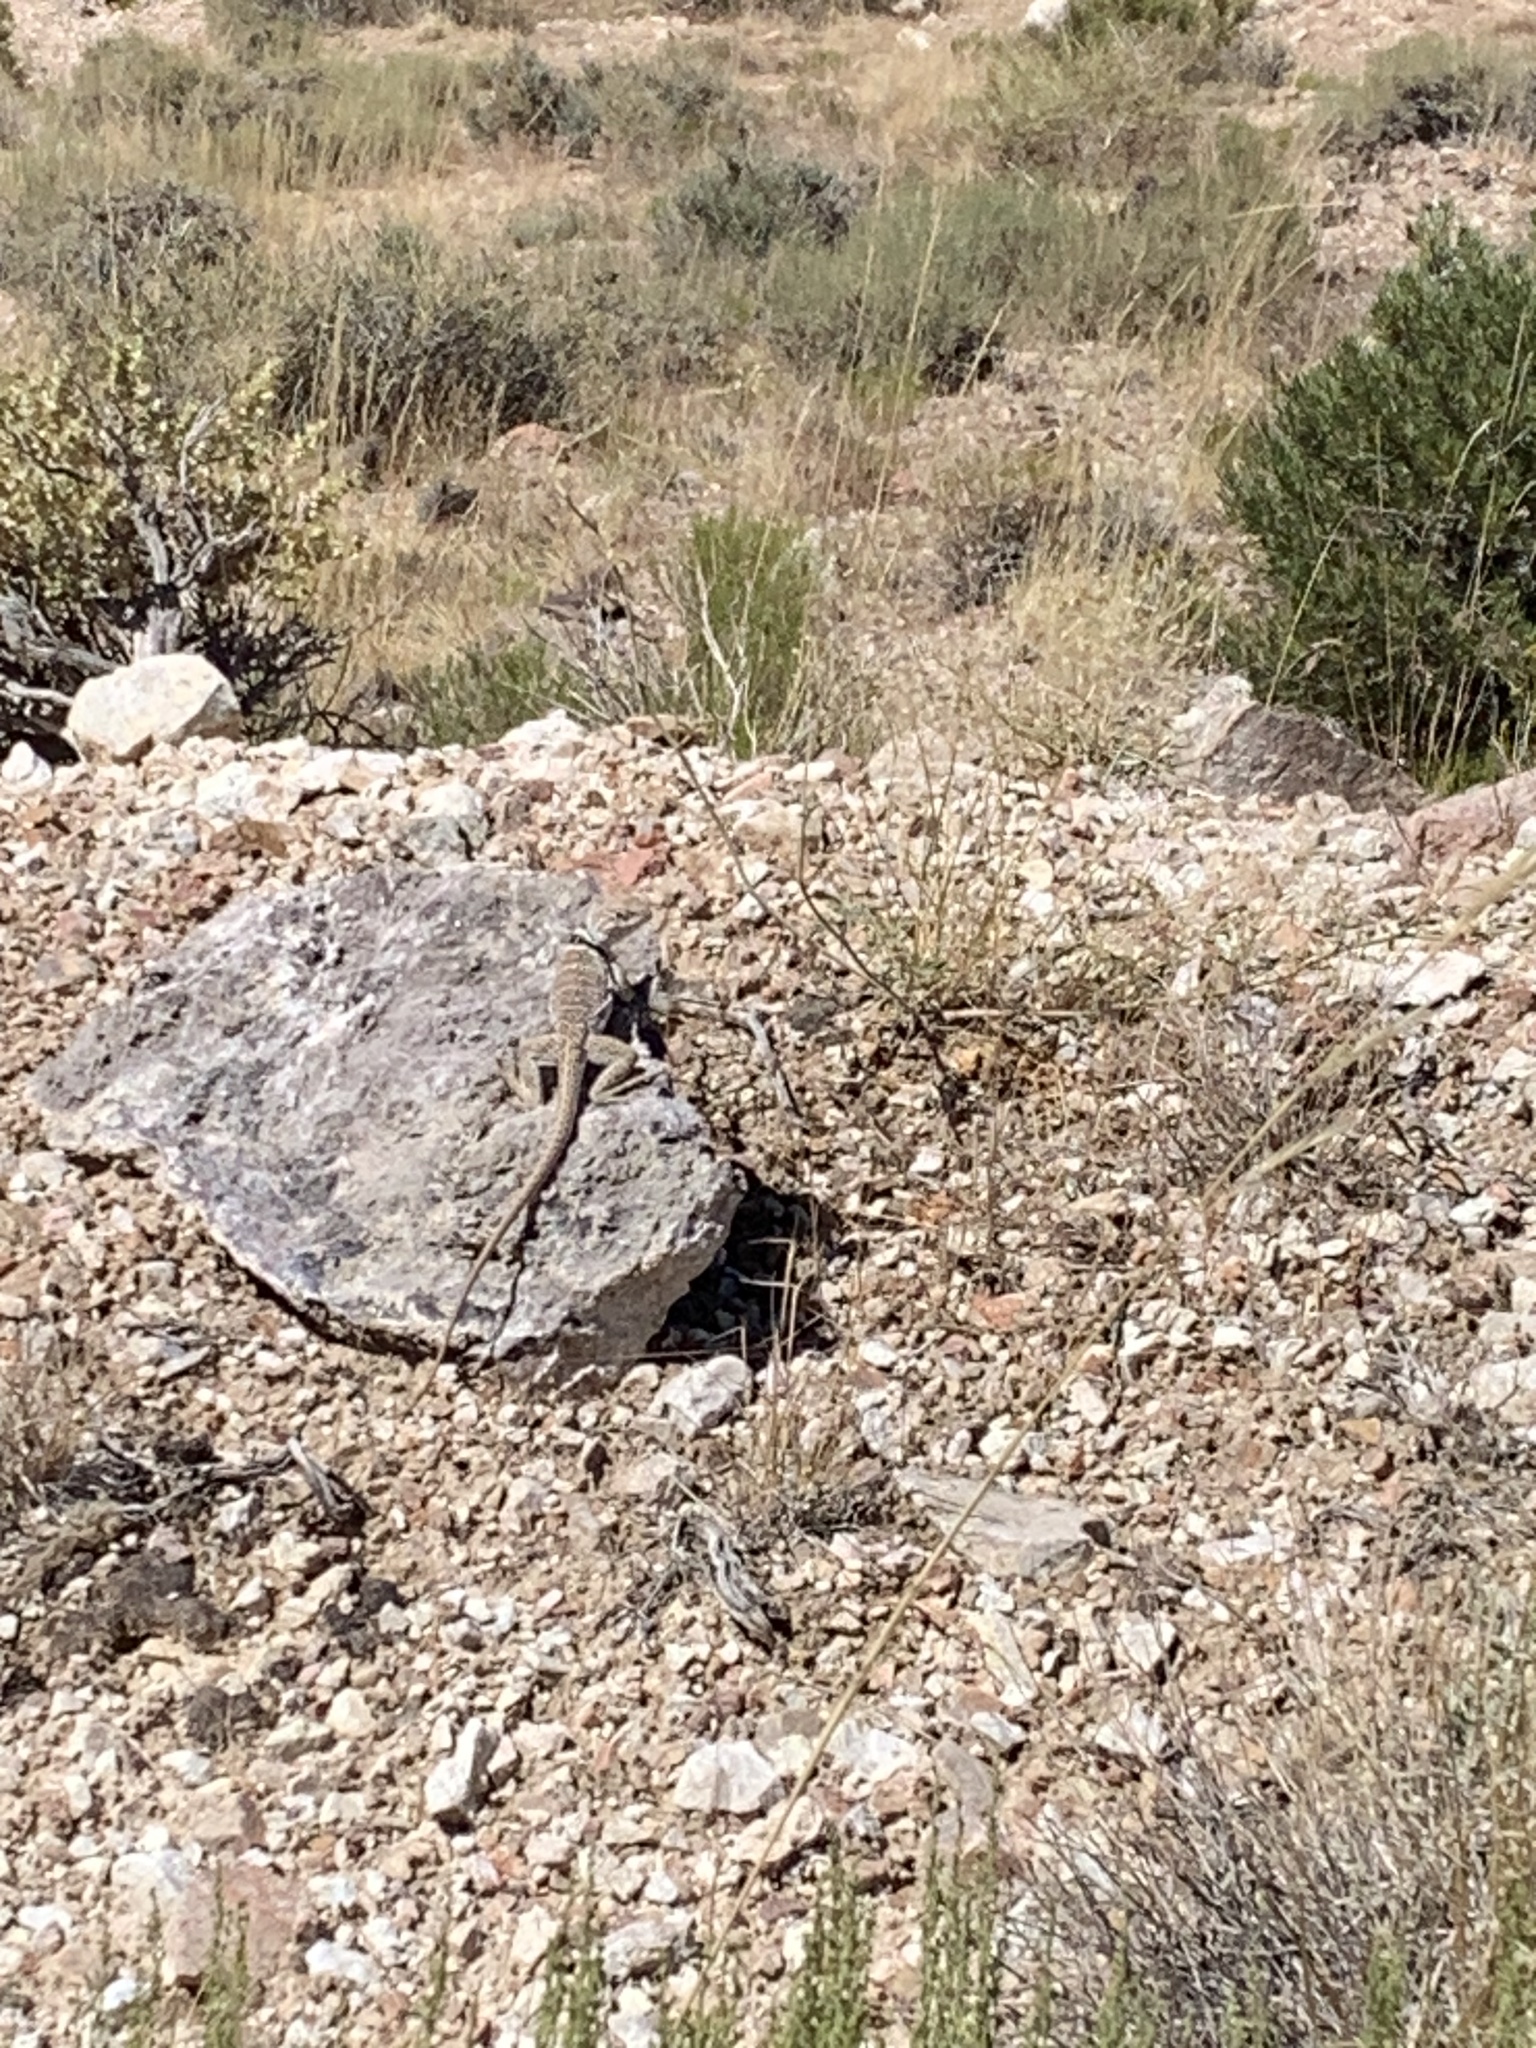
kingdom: Animalia
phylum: Chordata
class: Squamata
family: Crotaphytidae
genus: Crotaphytus
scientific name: Crotaphytus bicinctores
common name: Mojave black-collared lizard
